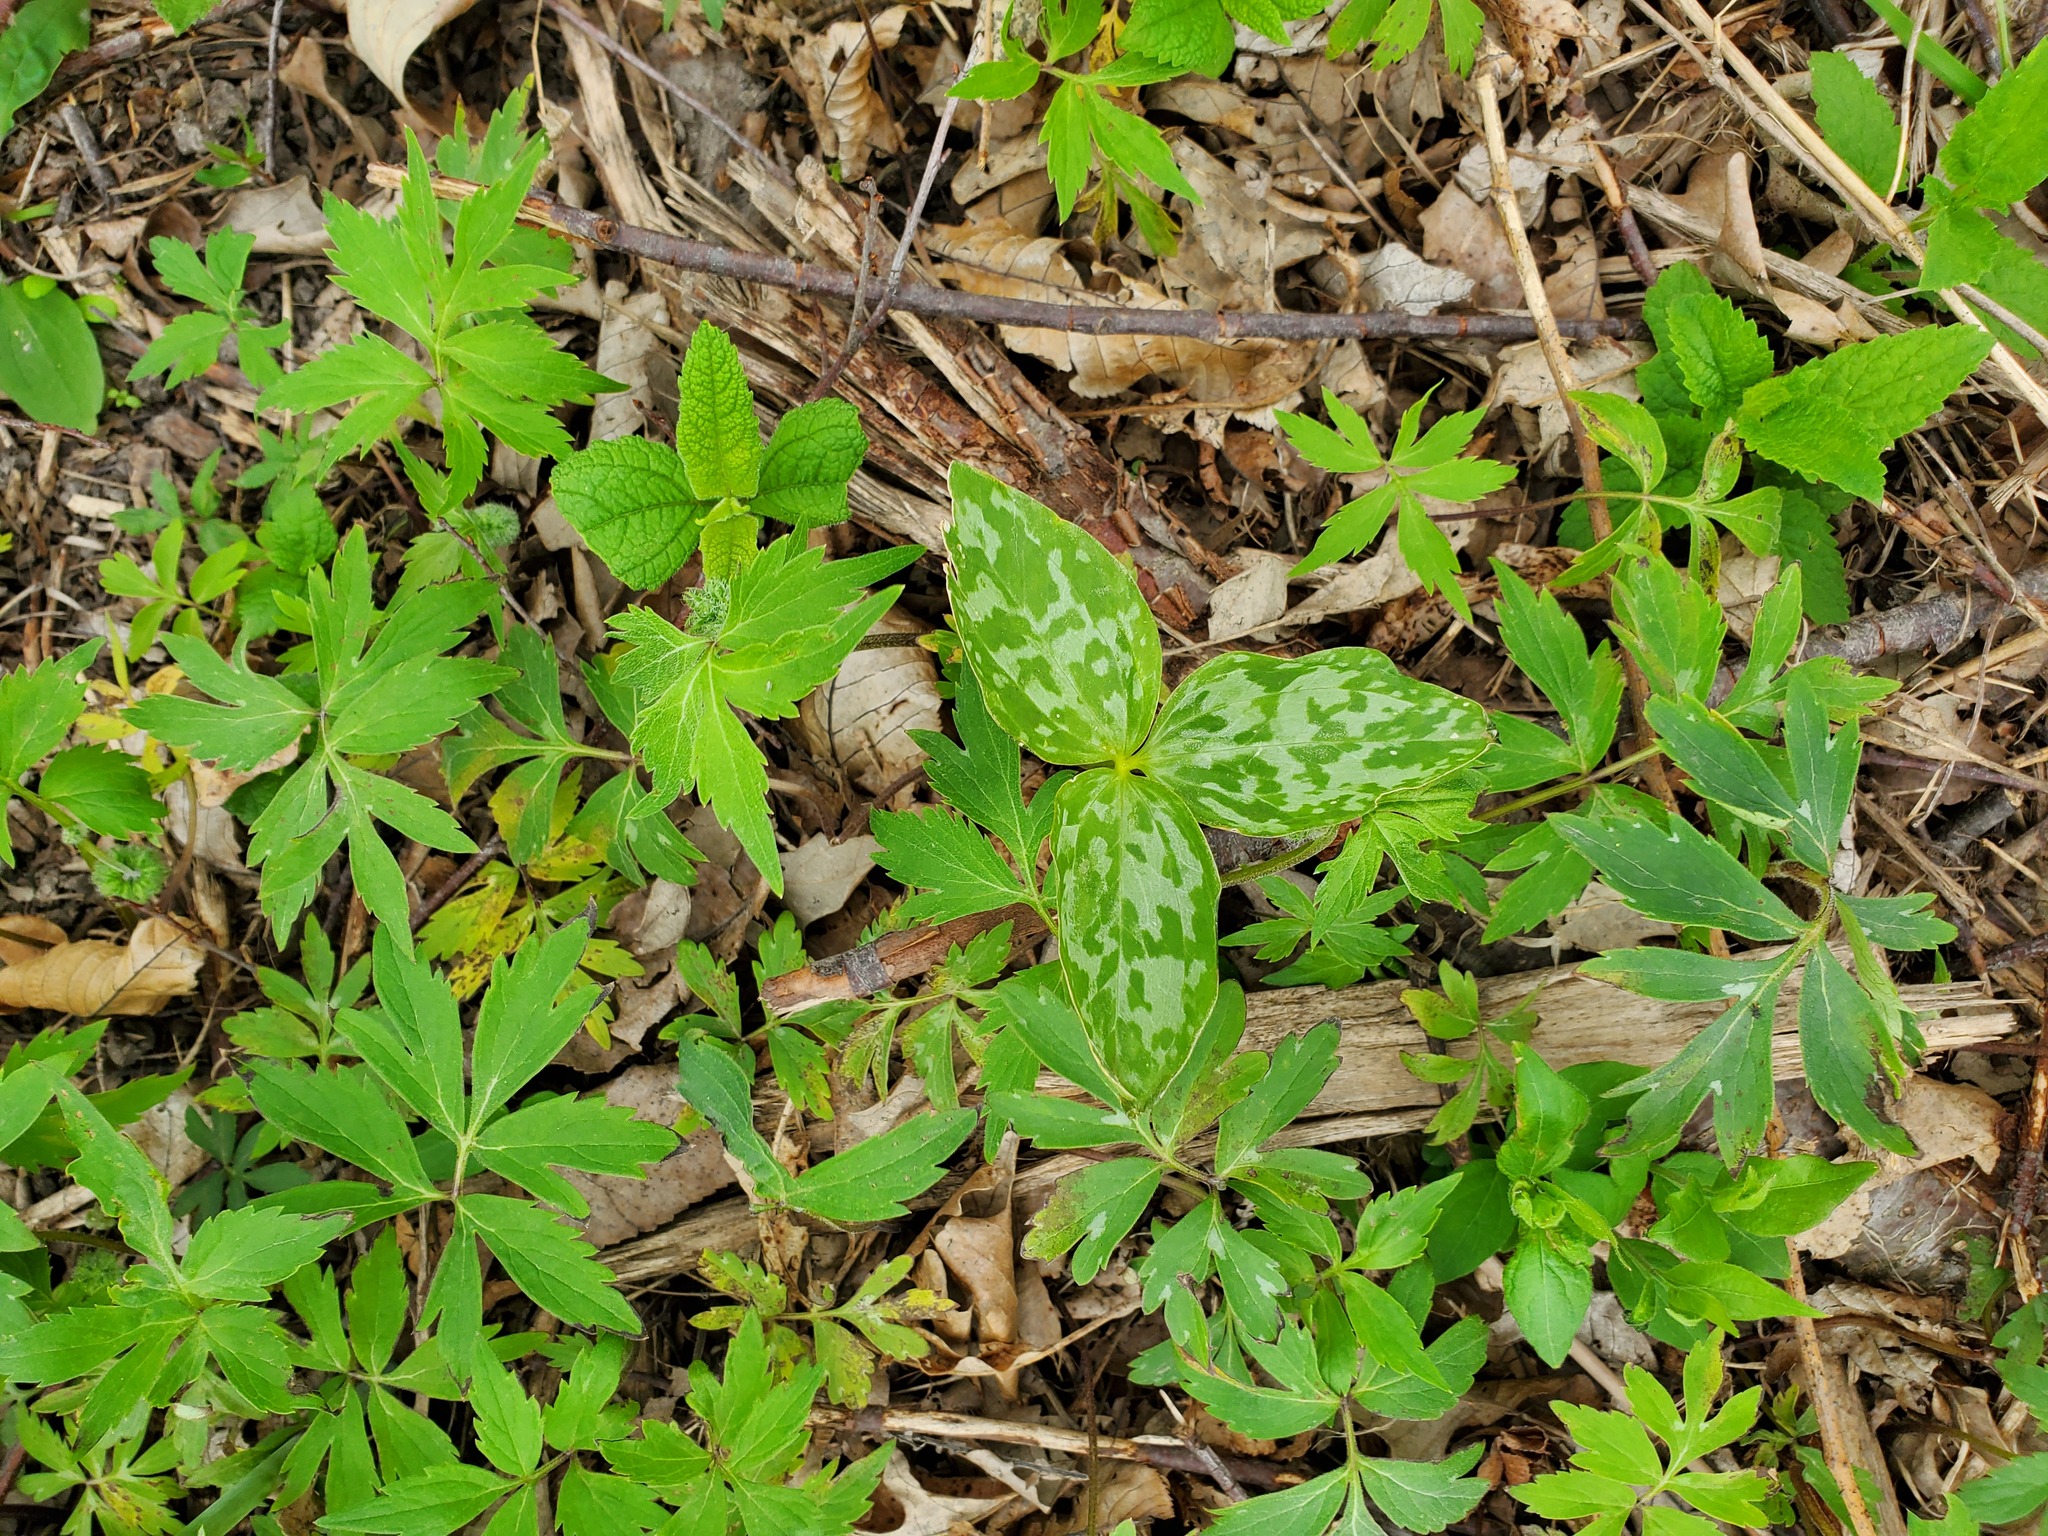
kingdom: Plantae
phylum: Tracheophyta
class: Liliopsida
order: Liliales
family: Melanthiaceae
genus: Trillium
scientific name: Trillium recurvatum
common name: Bloody butcher
